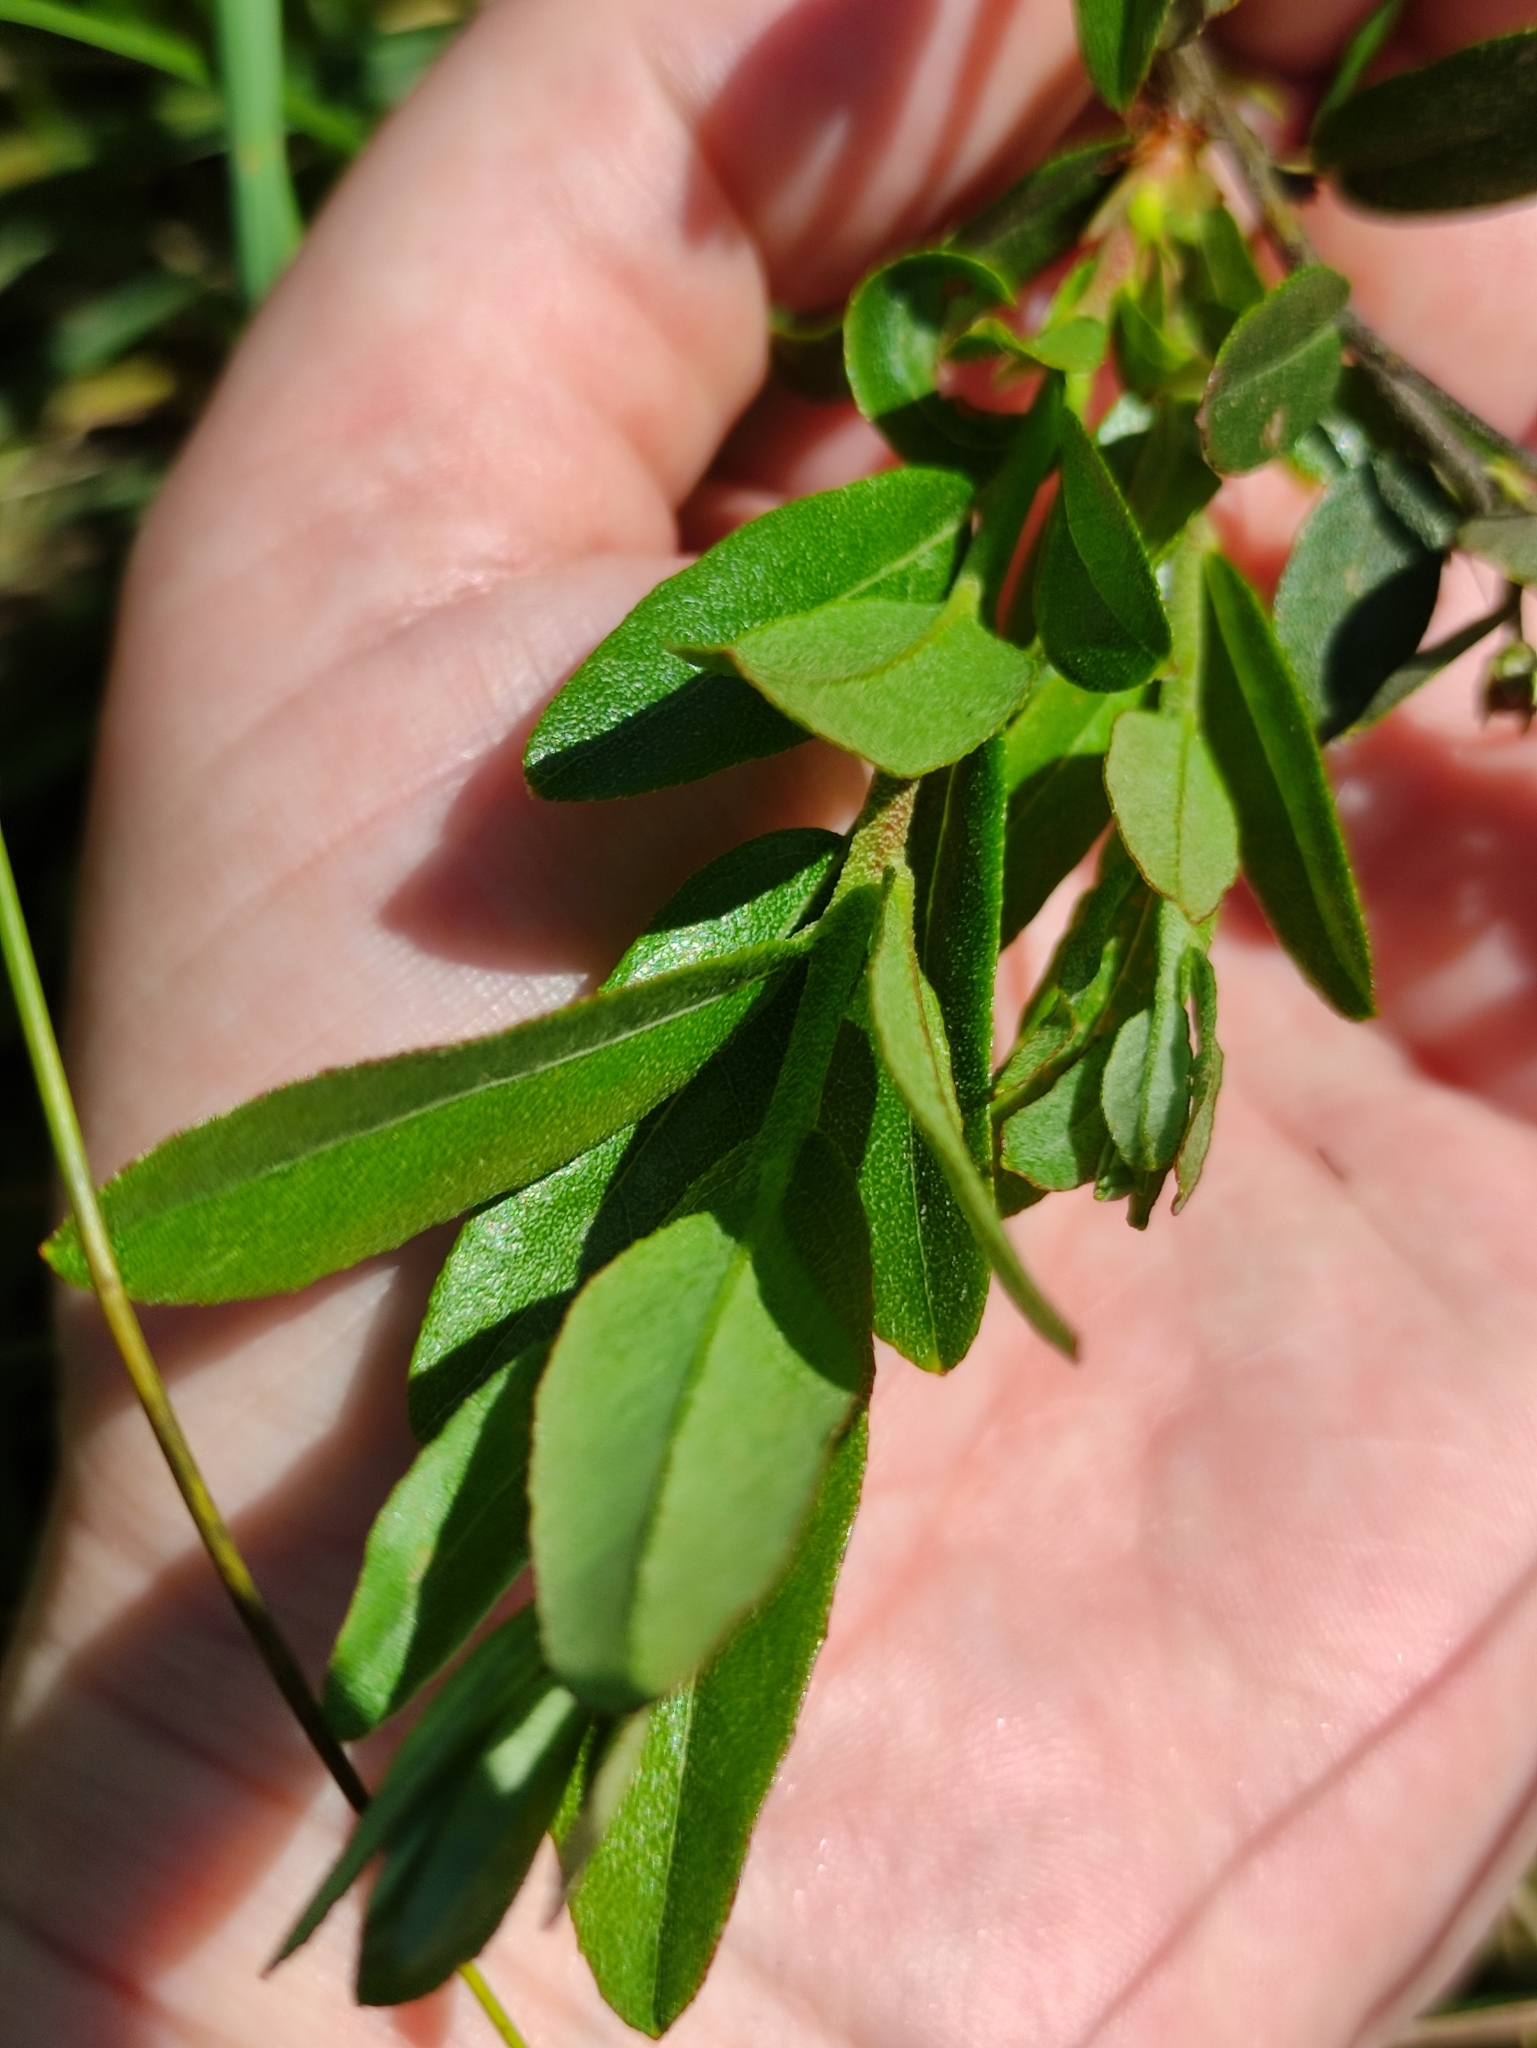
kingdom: Plantae
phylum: Tracheophyta
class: Magnoliopsida
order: Ericales
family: Ericaceae
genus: Chamaedaphne
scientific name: Chamaedaphne calyculata
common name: Leatherleaf
